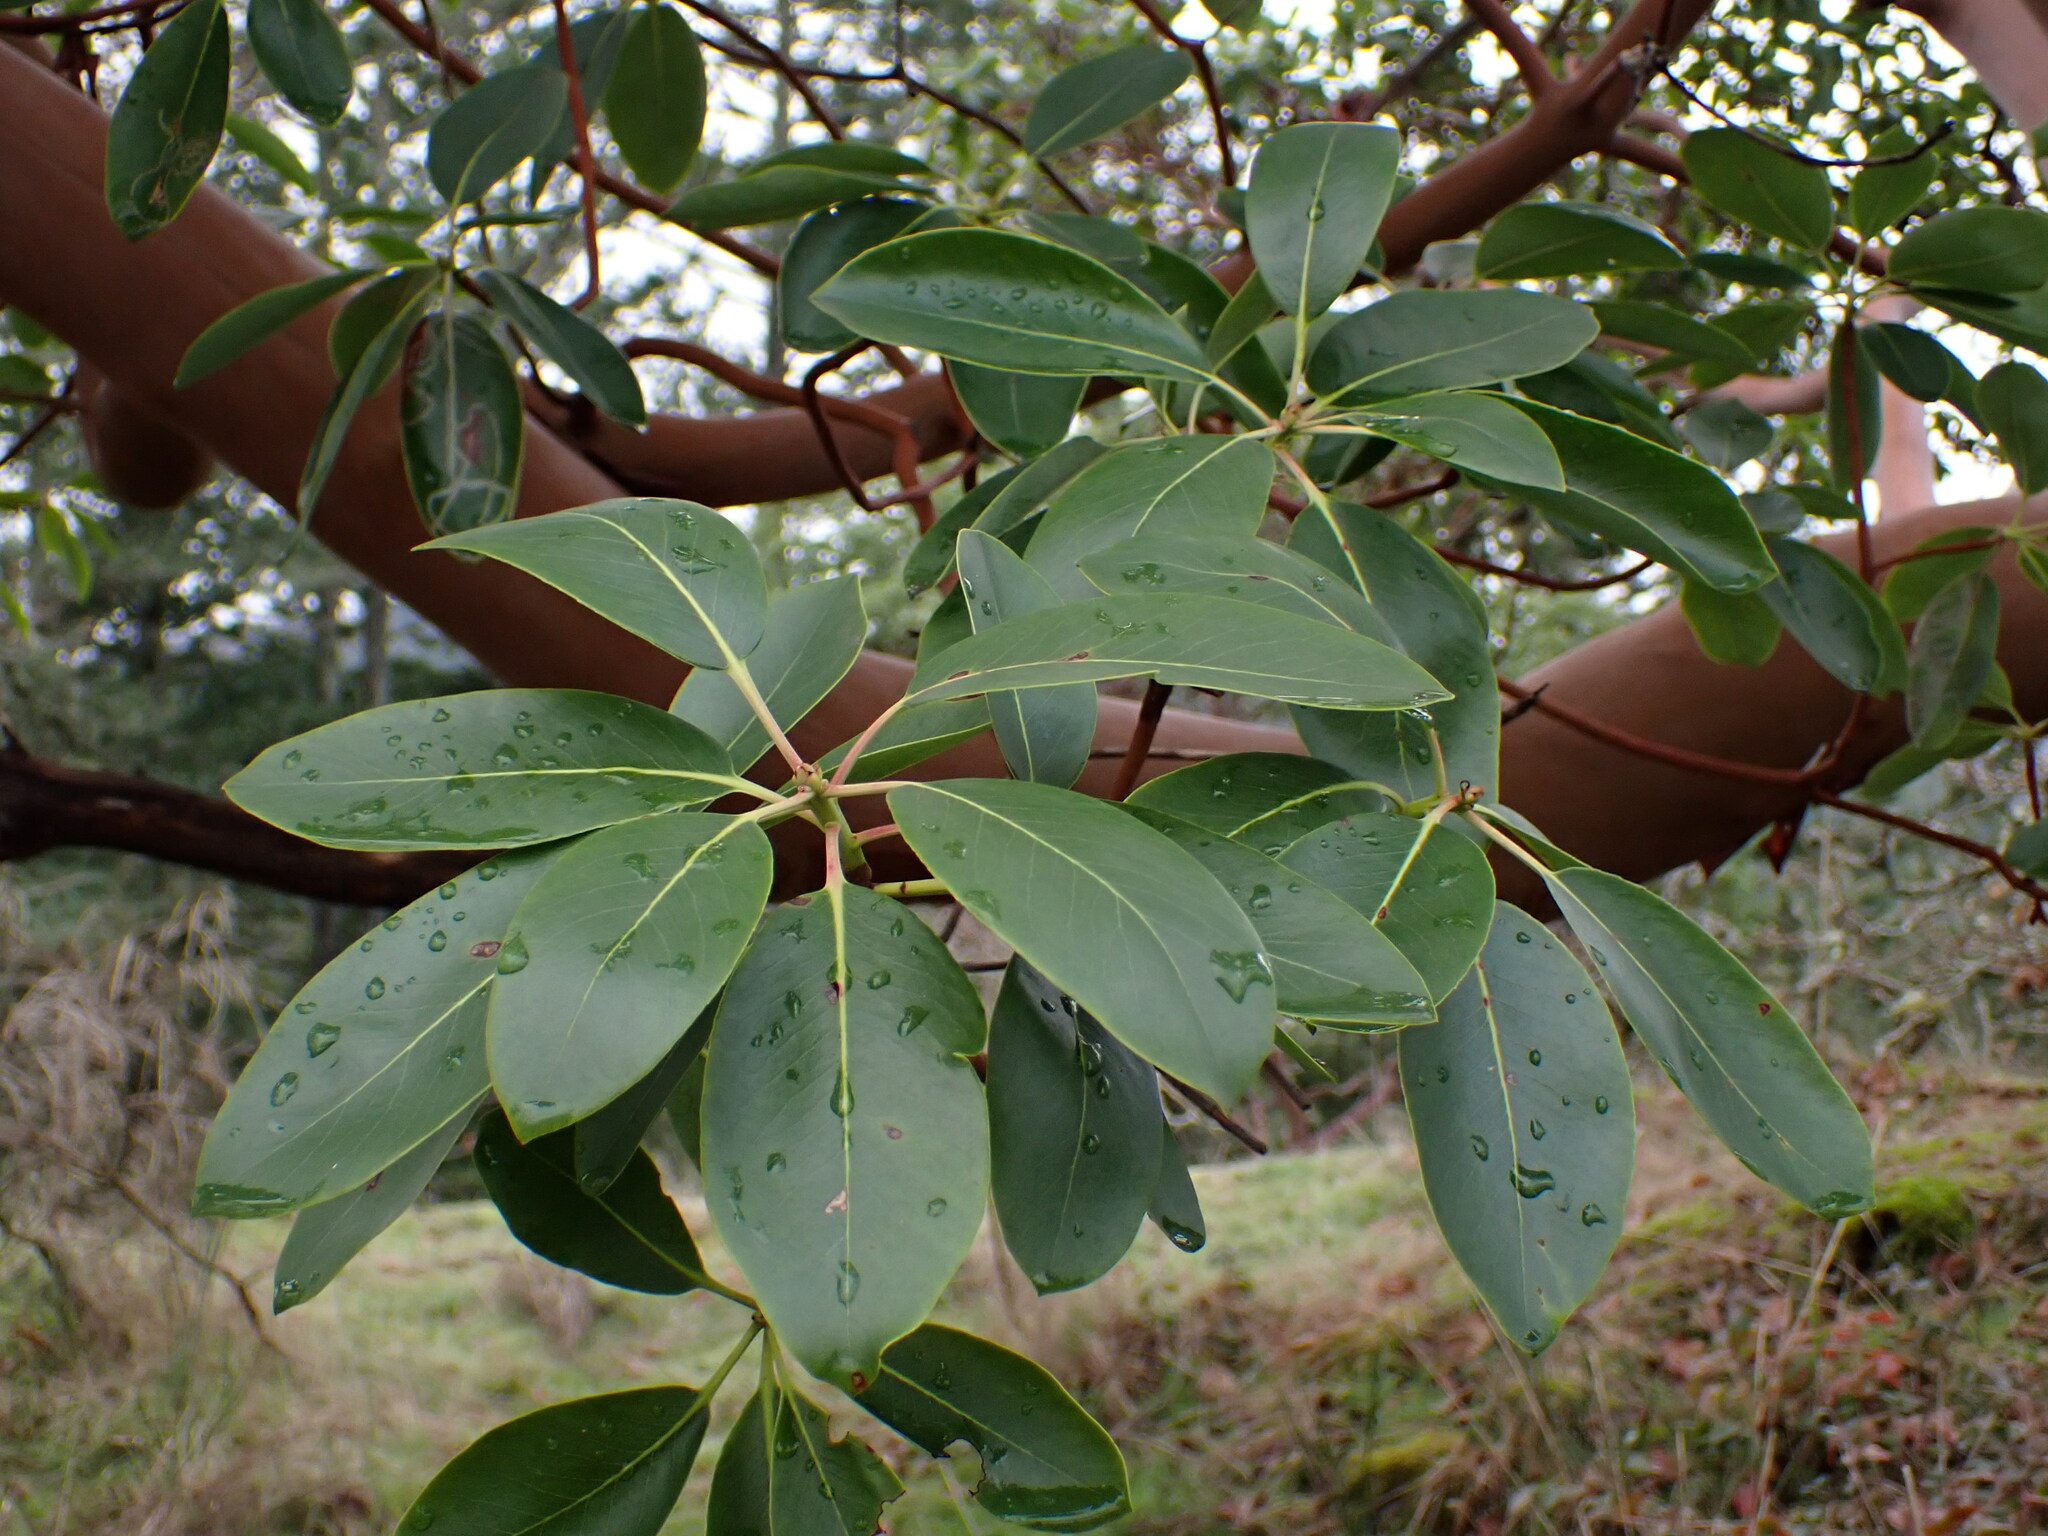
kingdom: Plantae
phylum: Tracheophyta
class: Magnoliopsida
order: Ericales
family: Ericaceae
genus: Arbutus
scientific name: Arbutus menziesii
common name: Pacific madrone
